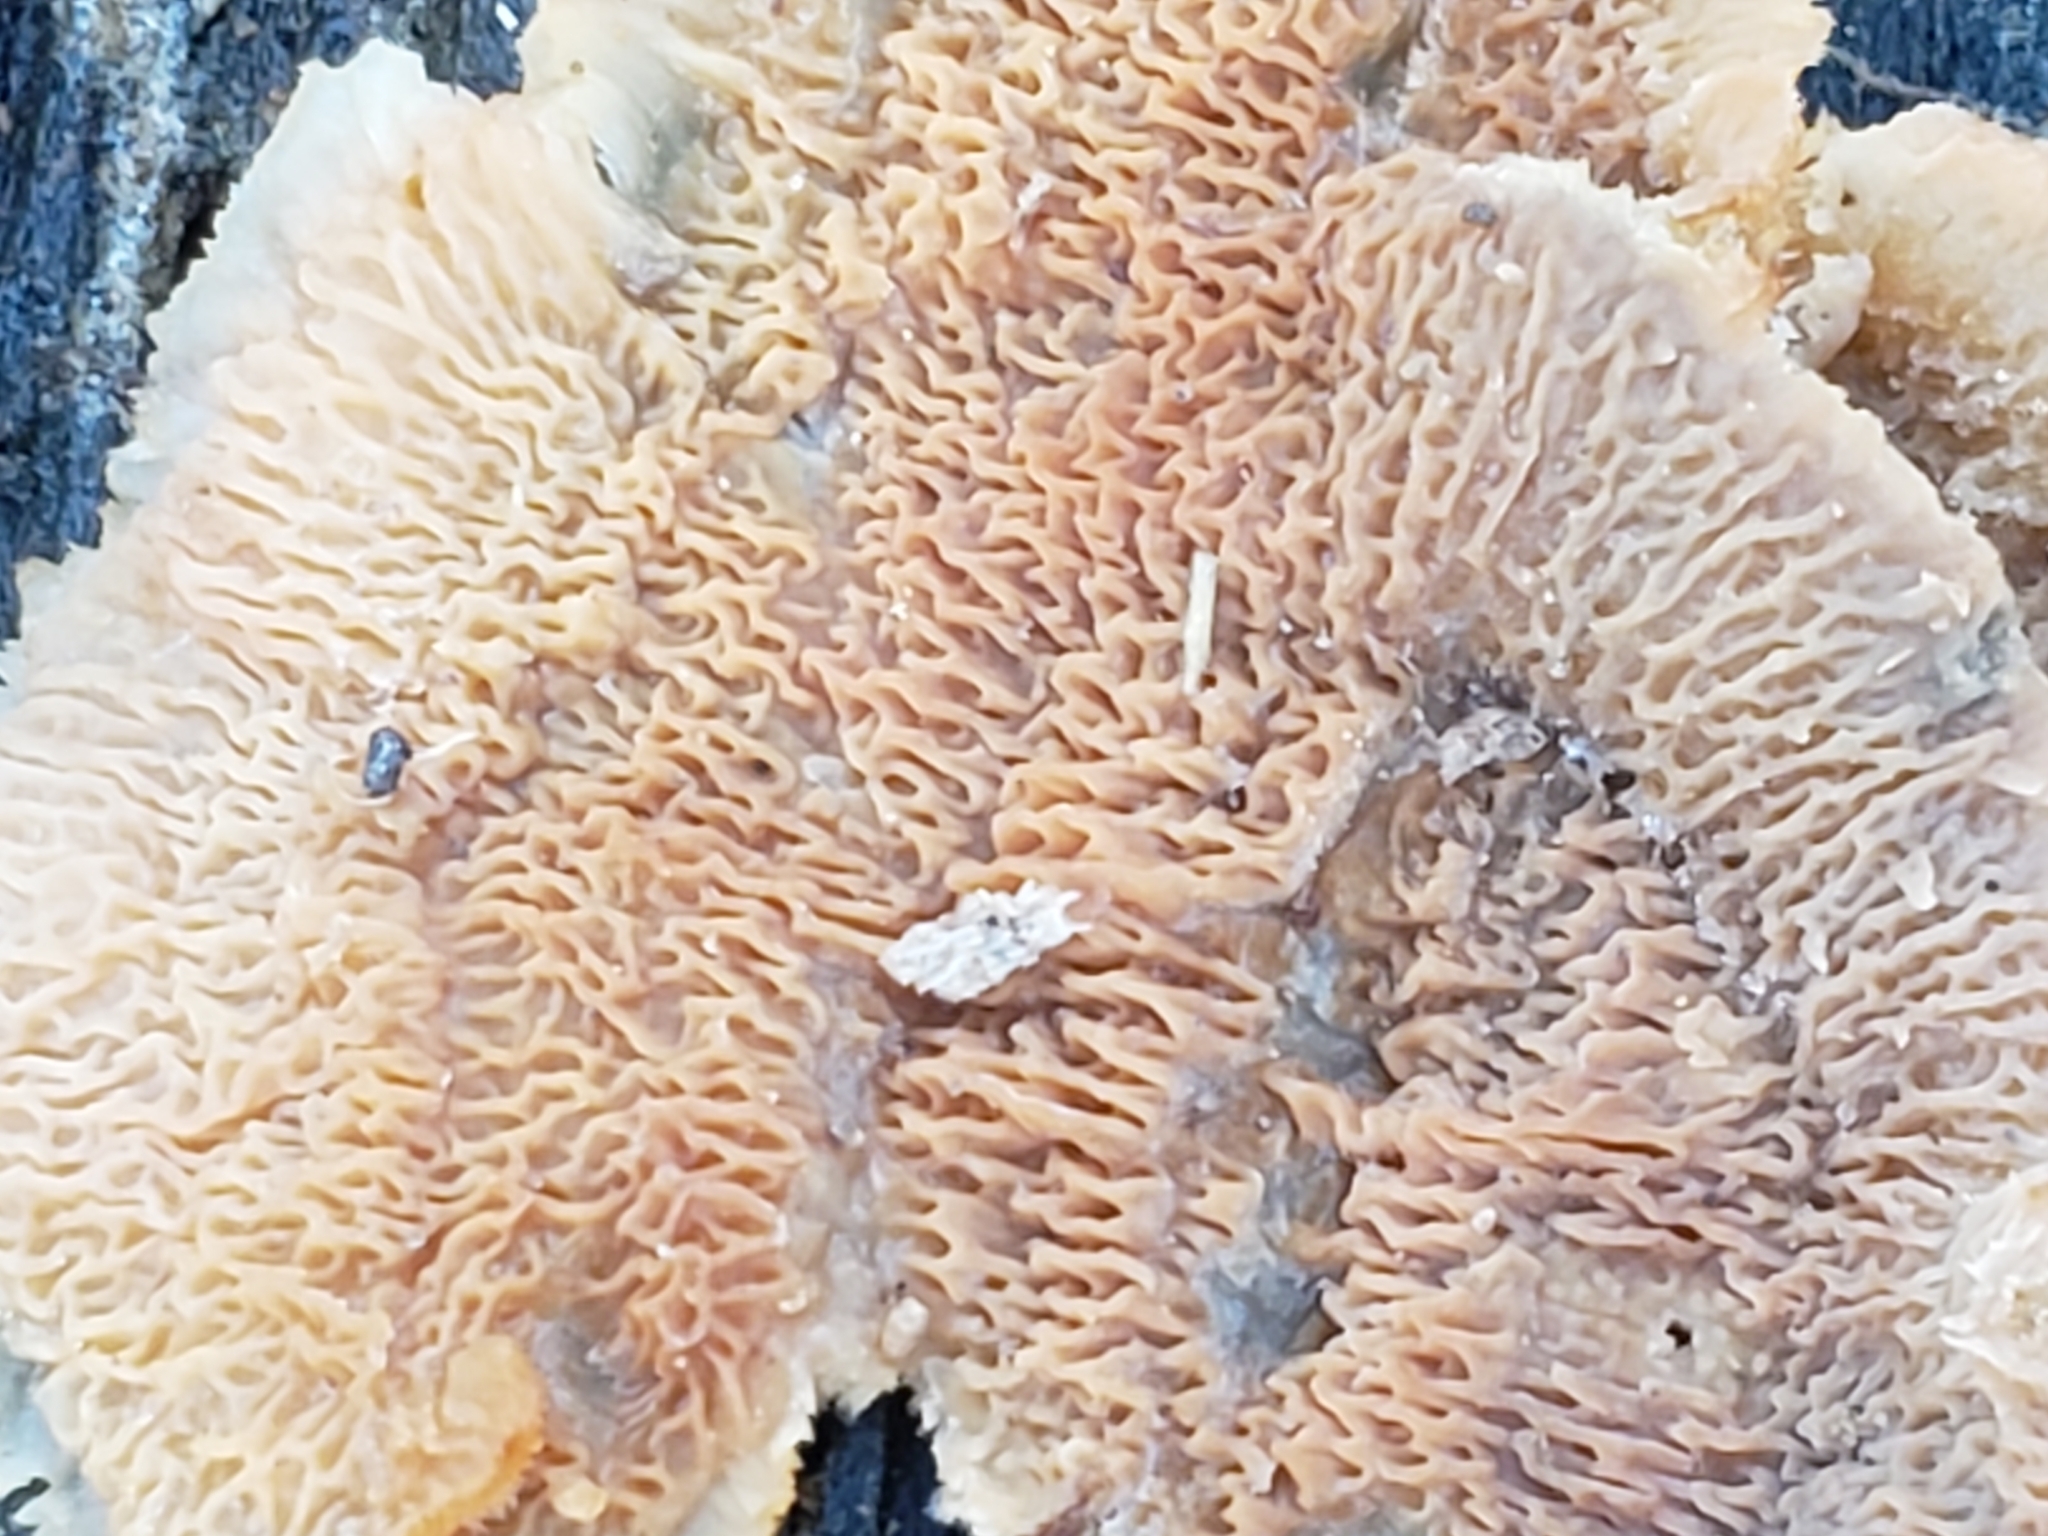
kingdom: Fungi
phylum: Basidiomycota
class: Agaricomycetes
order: Polyporales
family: Meruliaceae
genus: Phlebia
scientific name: Phlebia tremellosa
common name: Jelly rot
